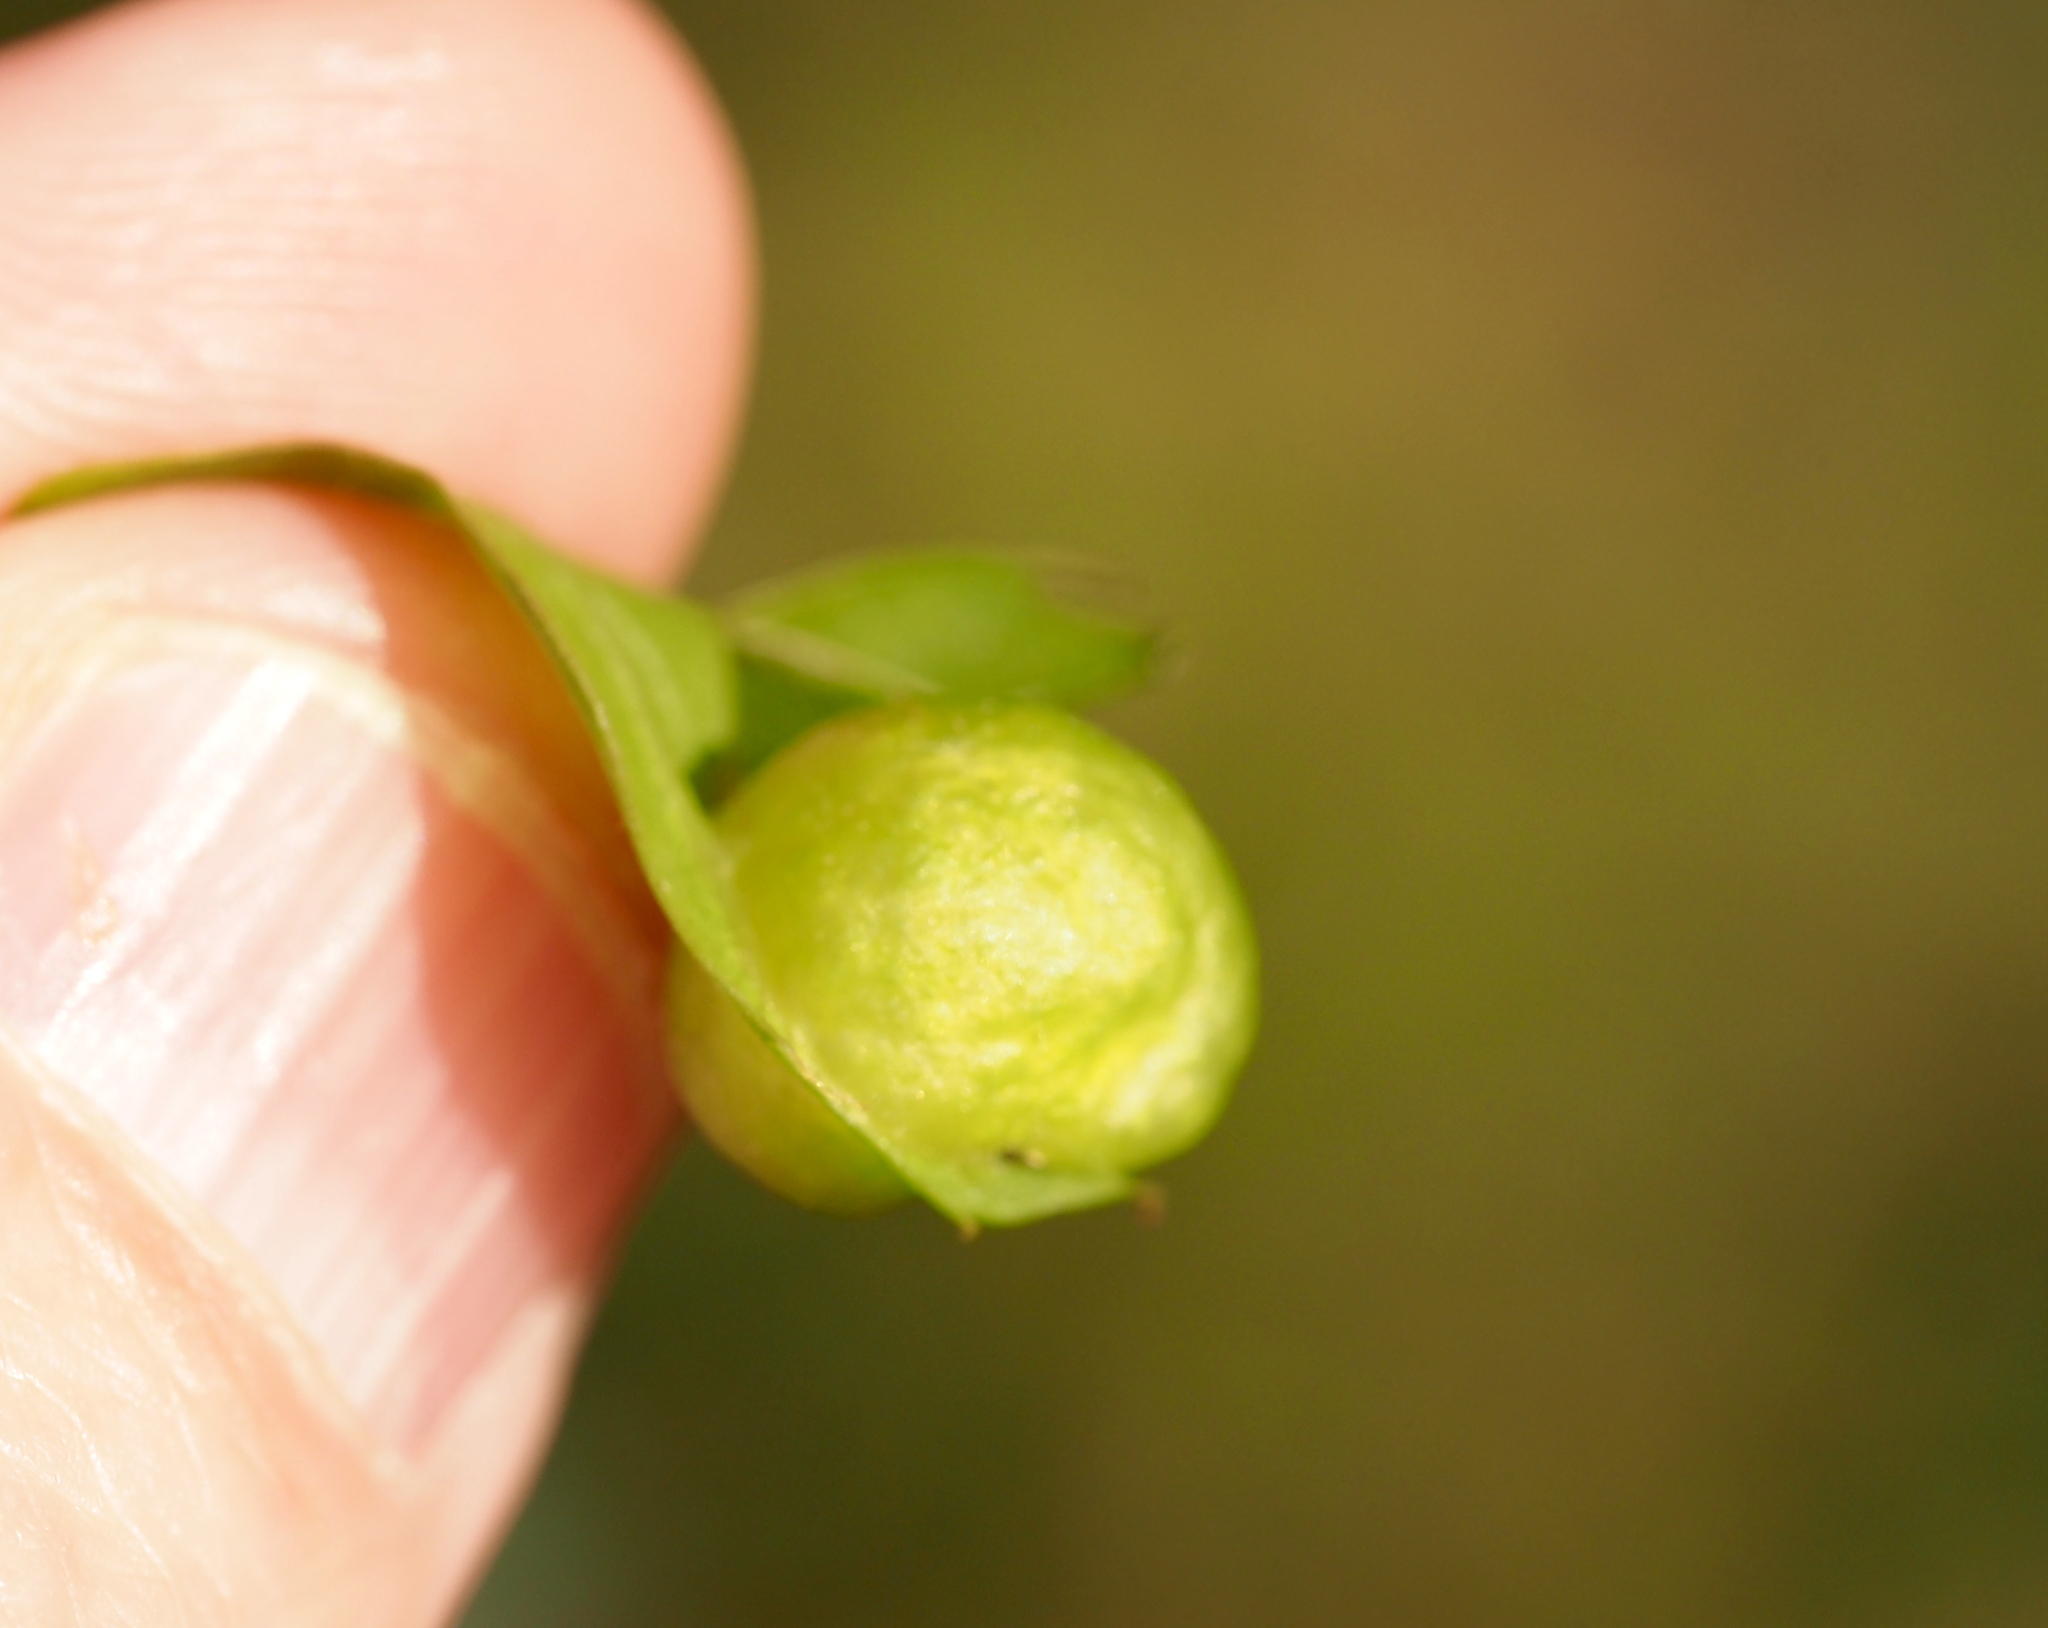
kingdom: Animalia
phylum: Arthropoda
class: Insecta
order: Hymenoptera
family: Cynipidae
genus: Amphibolips
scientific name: Amphibolips
